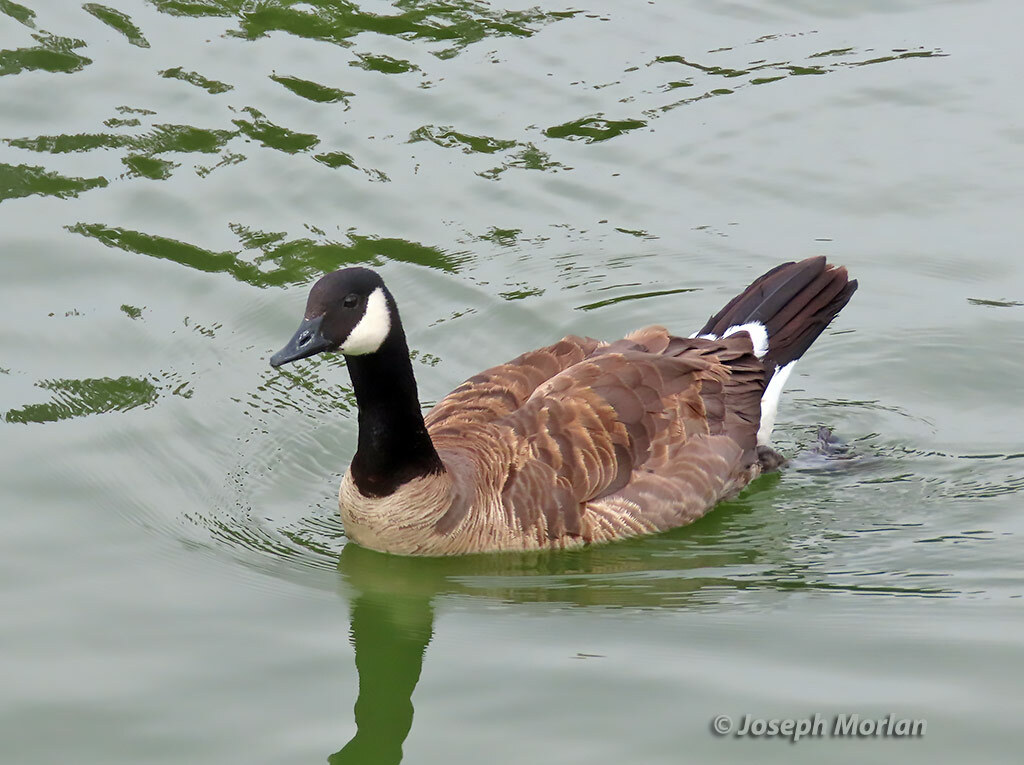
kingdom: Animalia
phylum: Chordata
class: Aves
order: Anseriformes
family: Anatidae
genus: Branta
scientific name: Branta canadensis
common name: Canada goose
